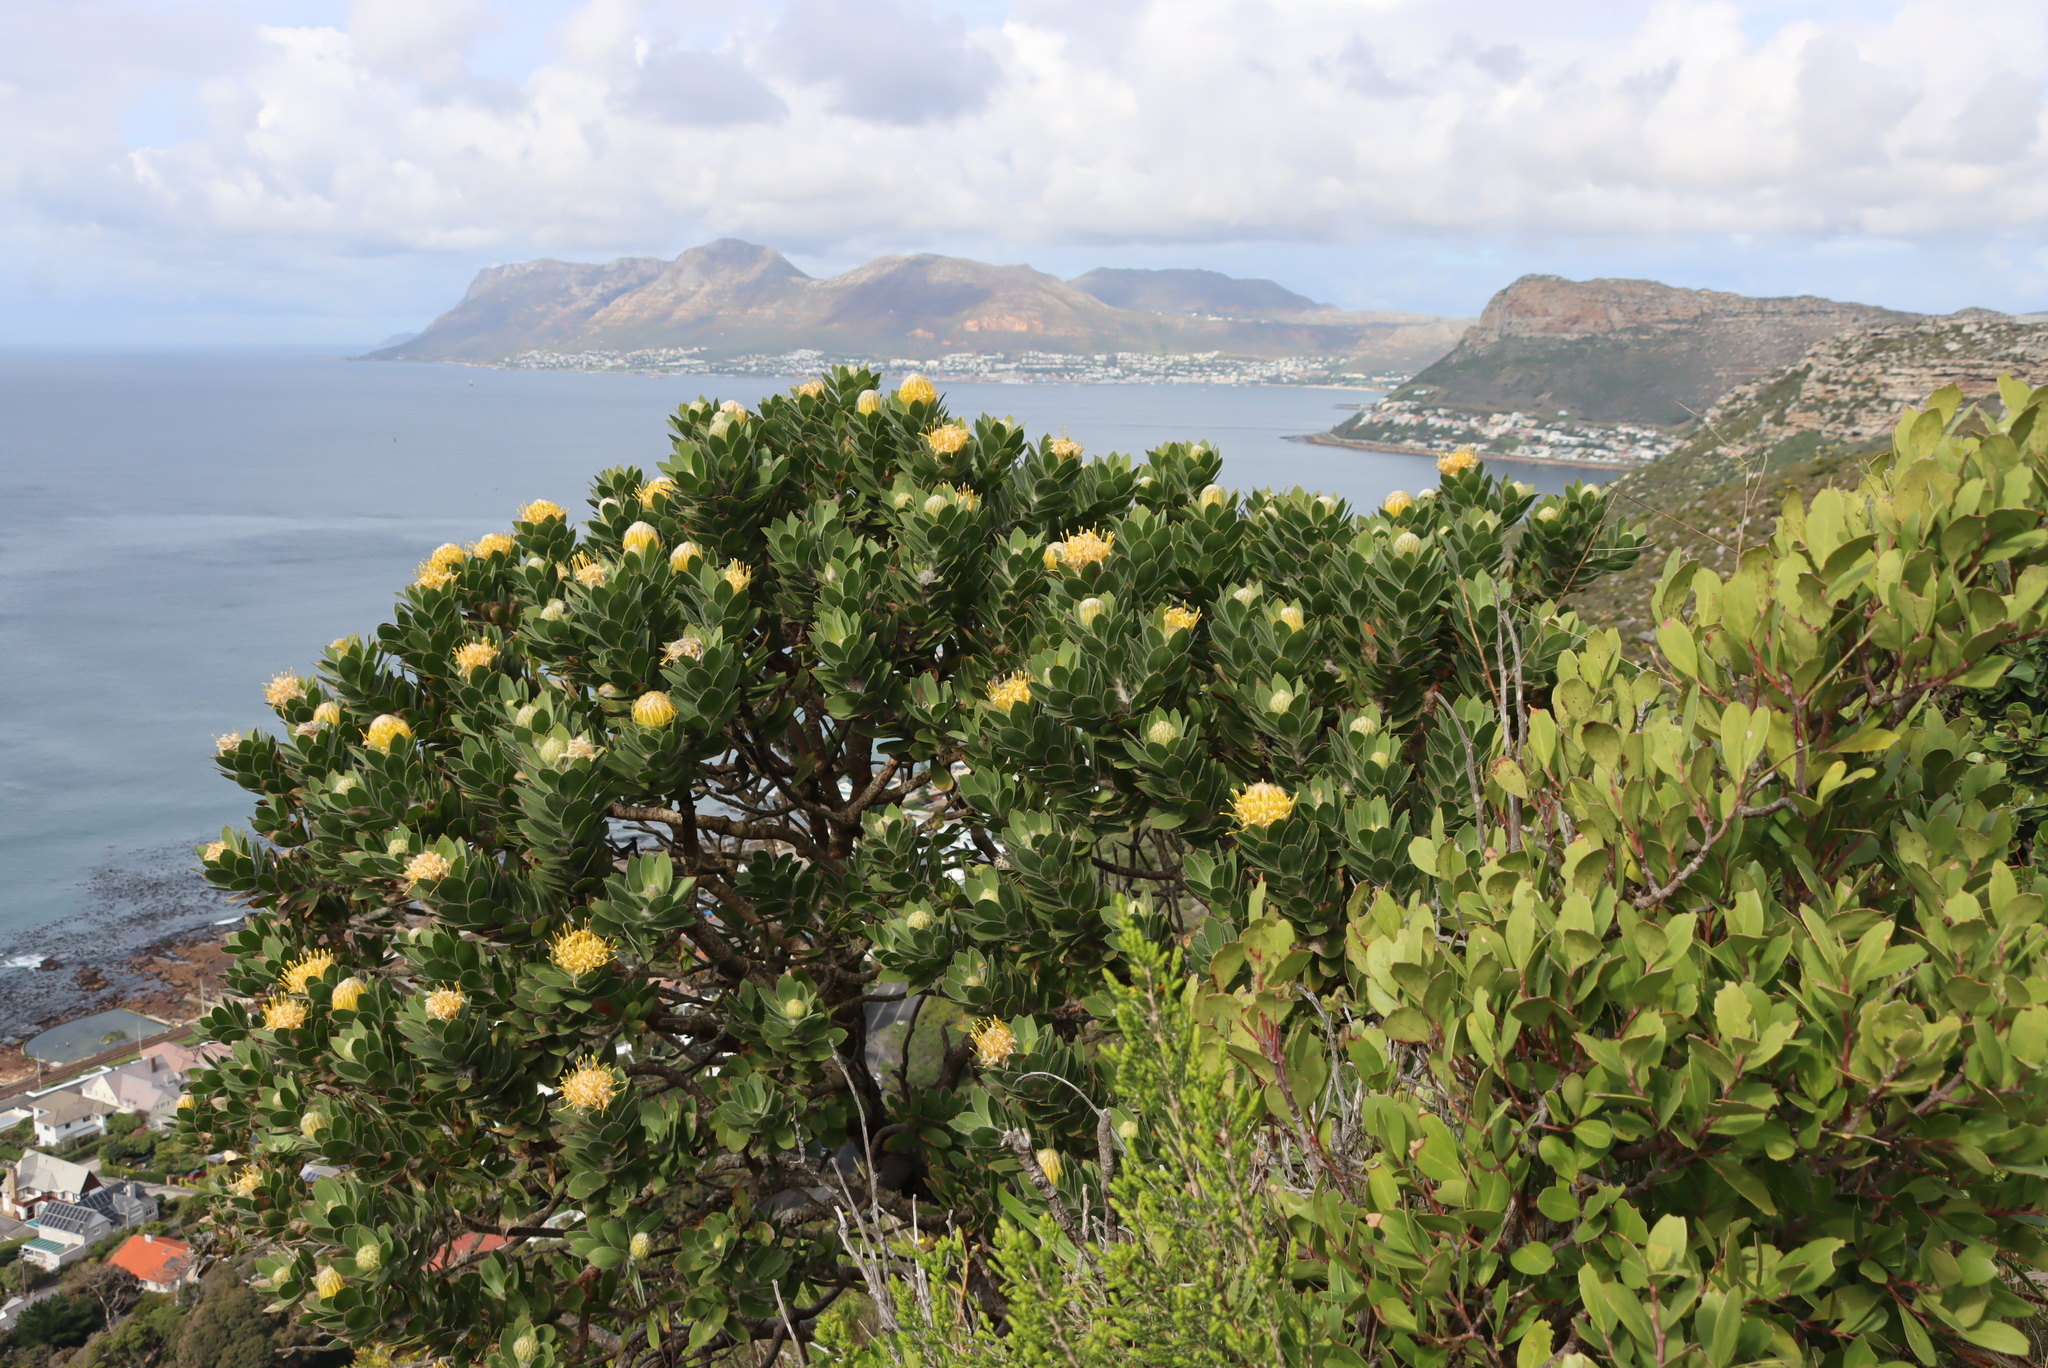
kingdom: Plantae
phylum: Tracheophyta
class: Magnoliopsida
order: Proteales
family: Proteaceae
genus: Leucospermum
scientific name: Leucospermum conocarpodendron
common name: Tree pincushion
